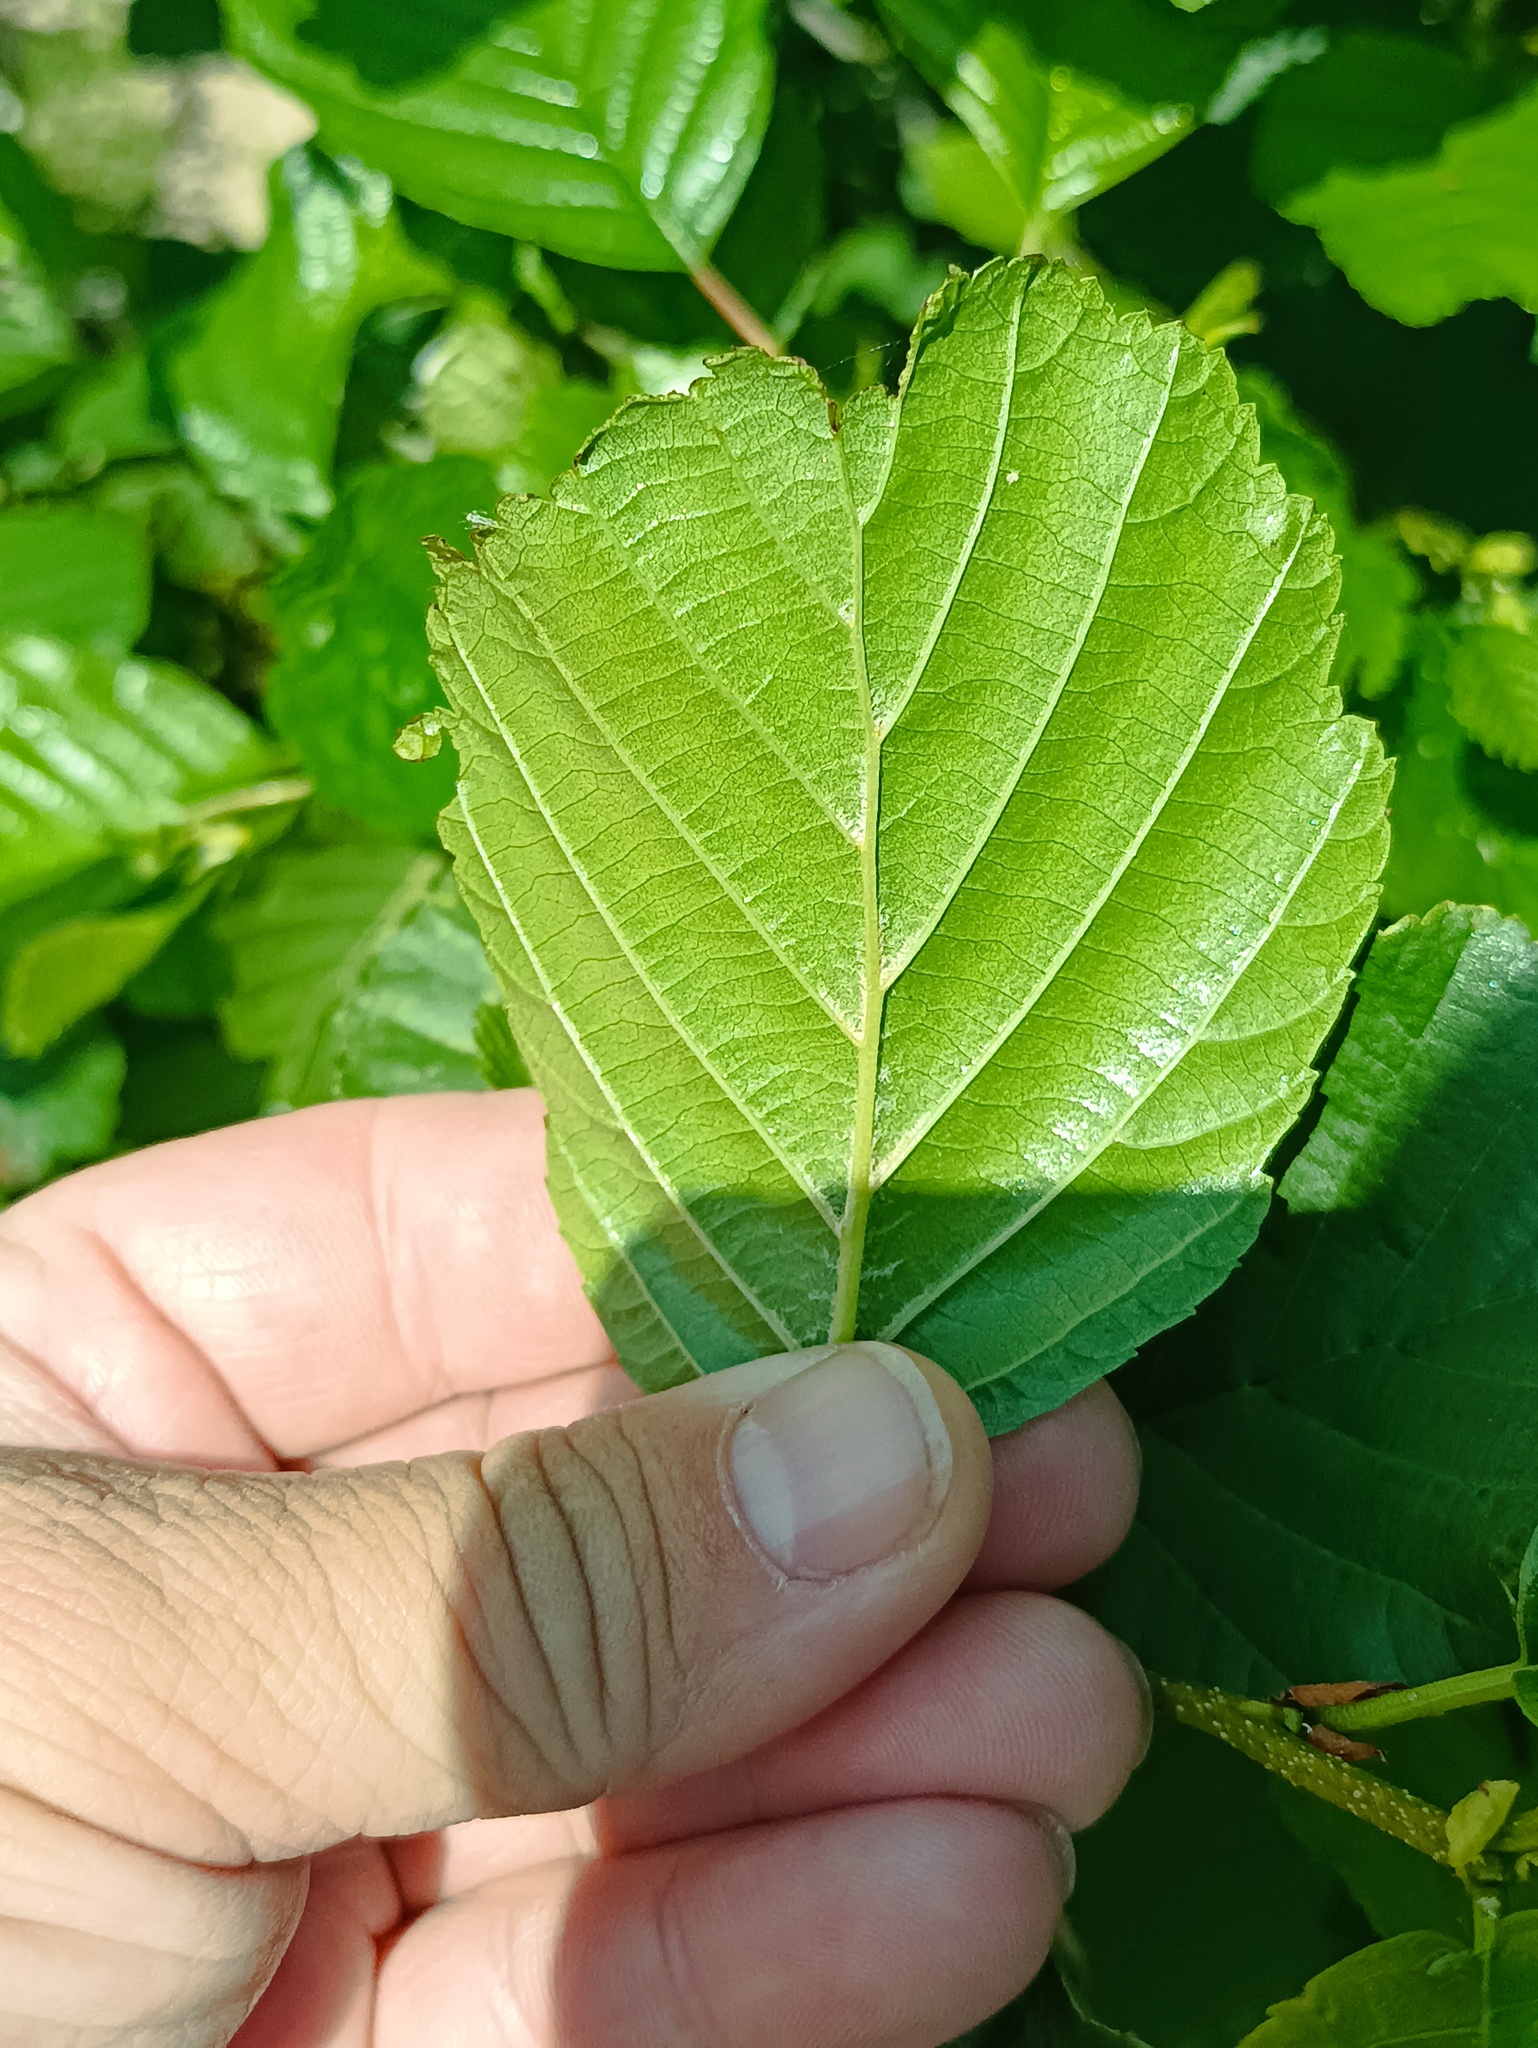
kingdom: Plantae
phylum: Tracheophyta
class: Magnoliopsida
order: Fagales
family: Betulaceae
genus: Alnus
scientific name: Alnus glutinosa
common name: Black alder
